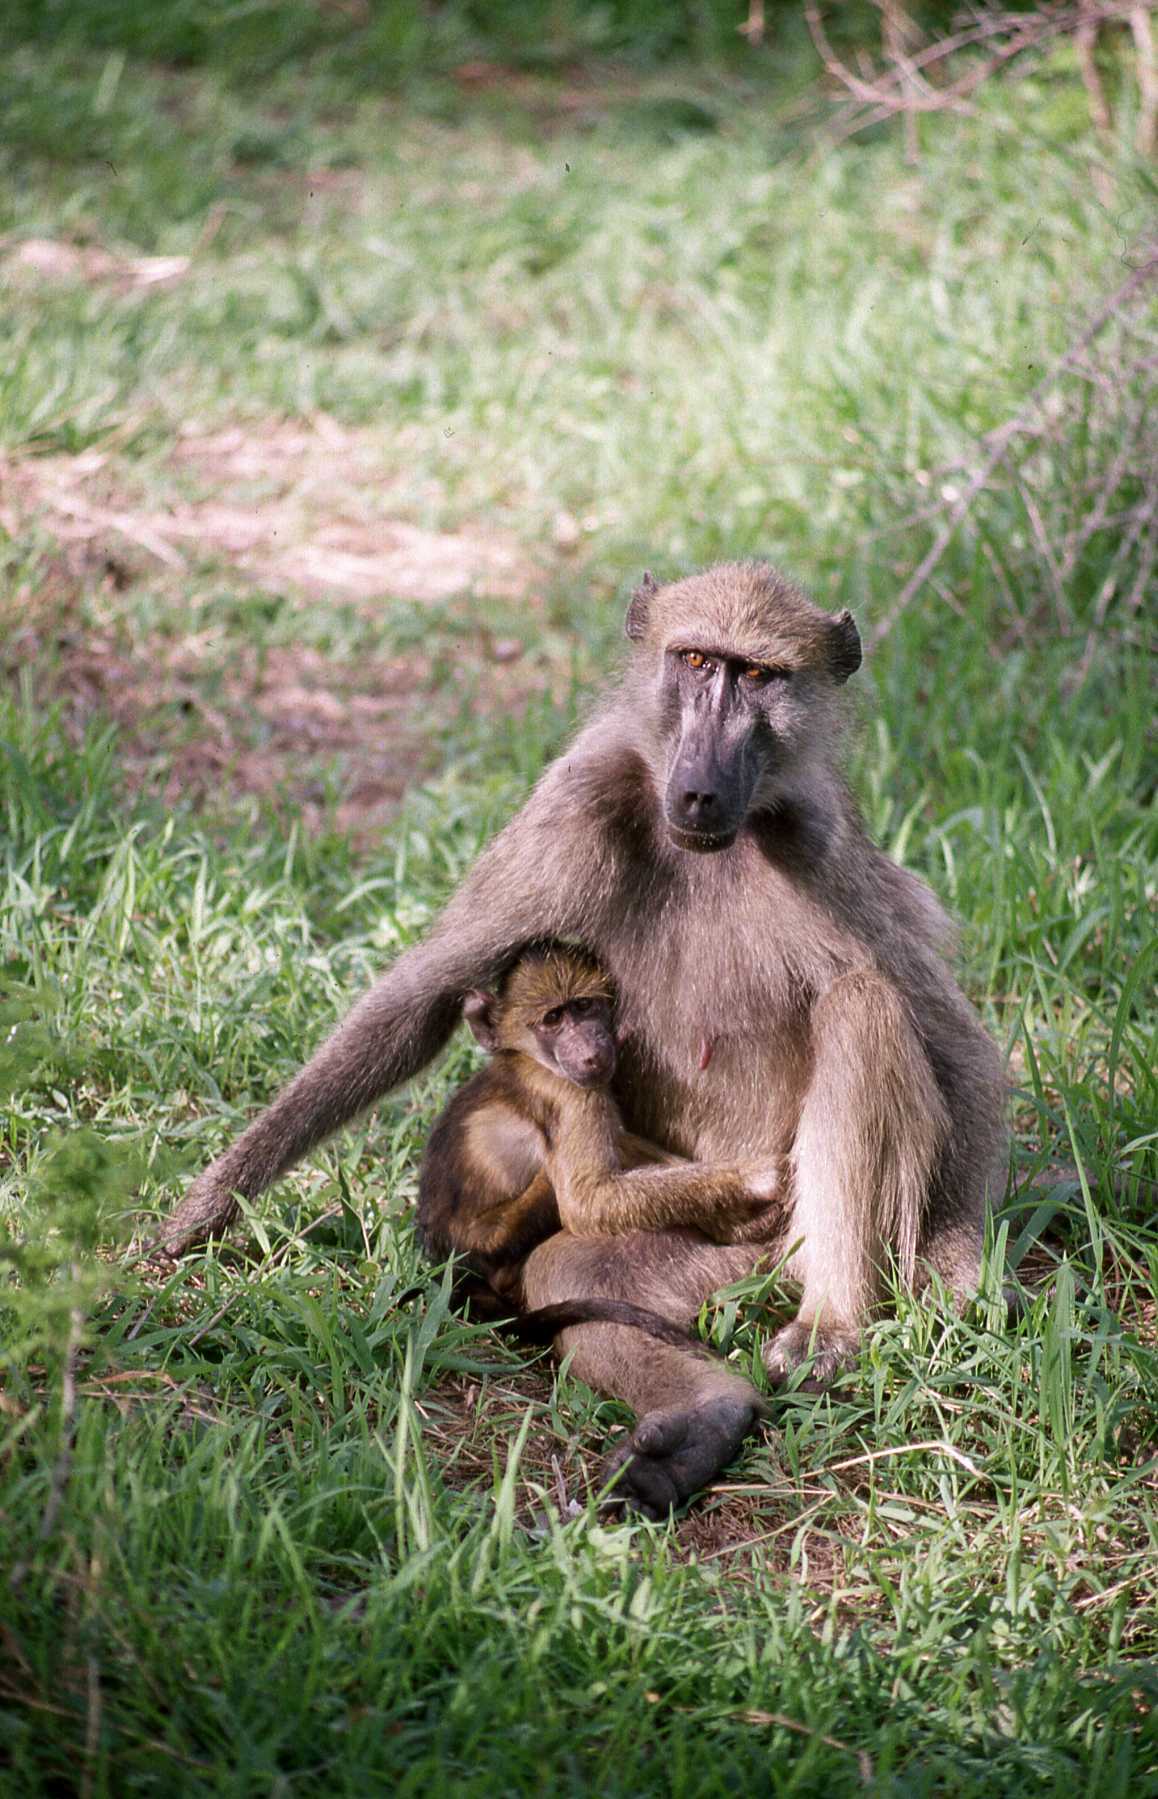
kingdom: Animalia
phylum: Chordata
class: Mammalia
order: Primates
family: Cercopithecidae
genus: Papio
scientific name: Papio ursinus
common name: Chacma baboon
